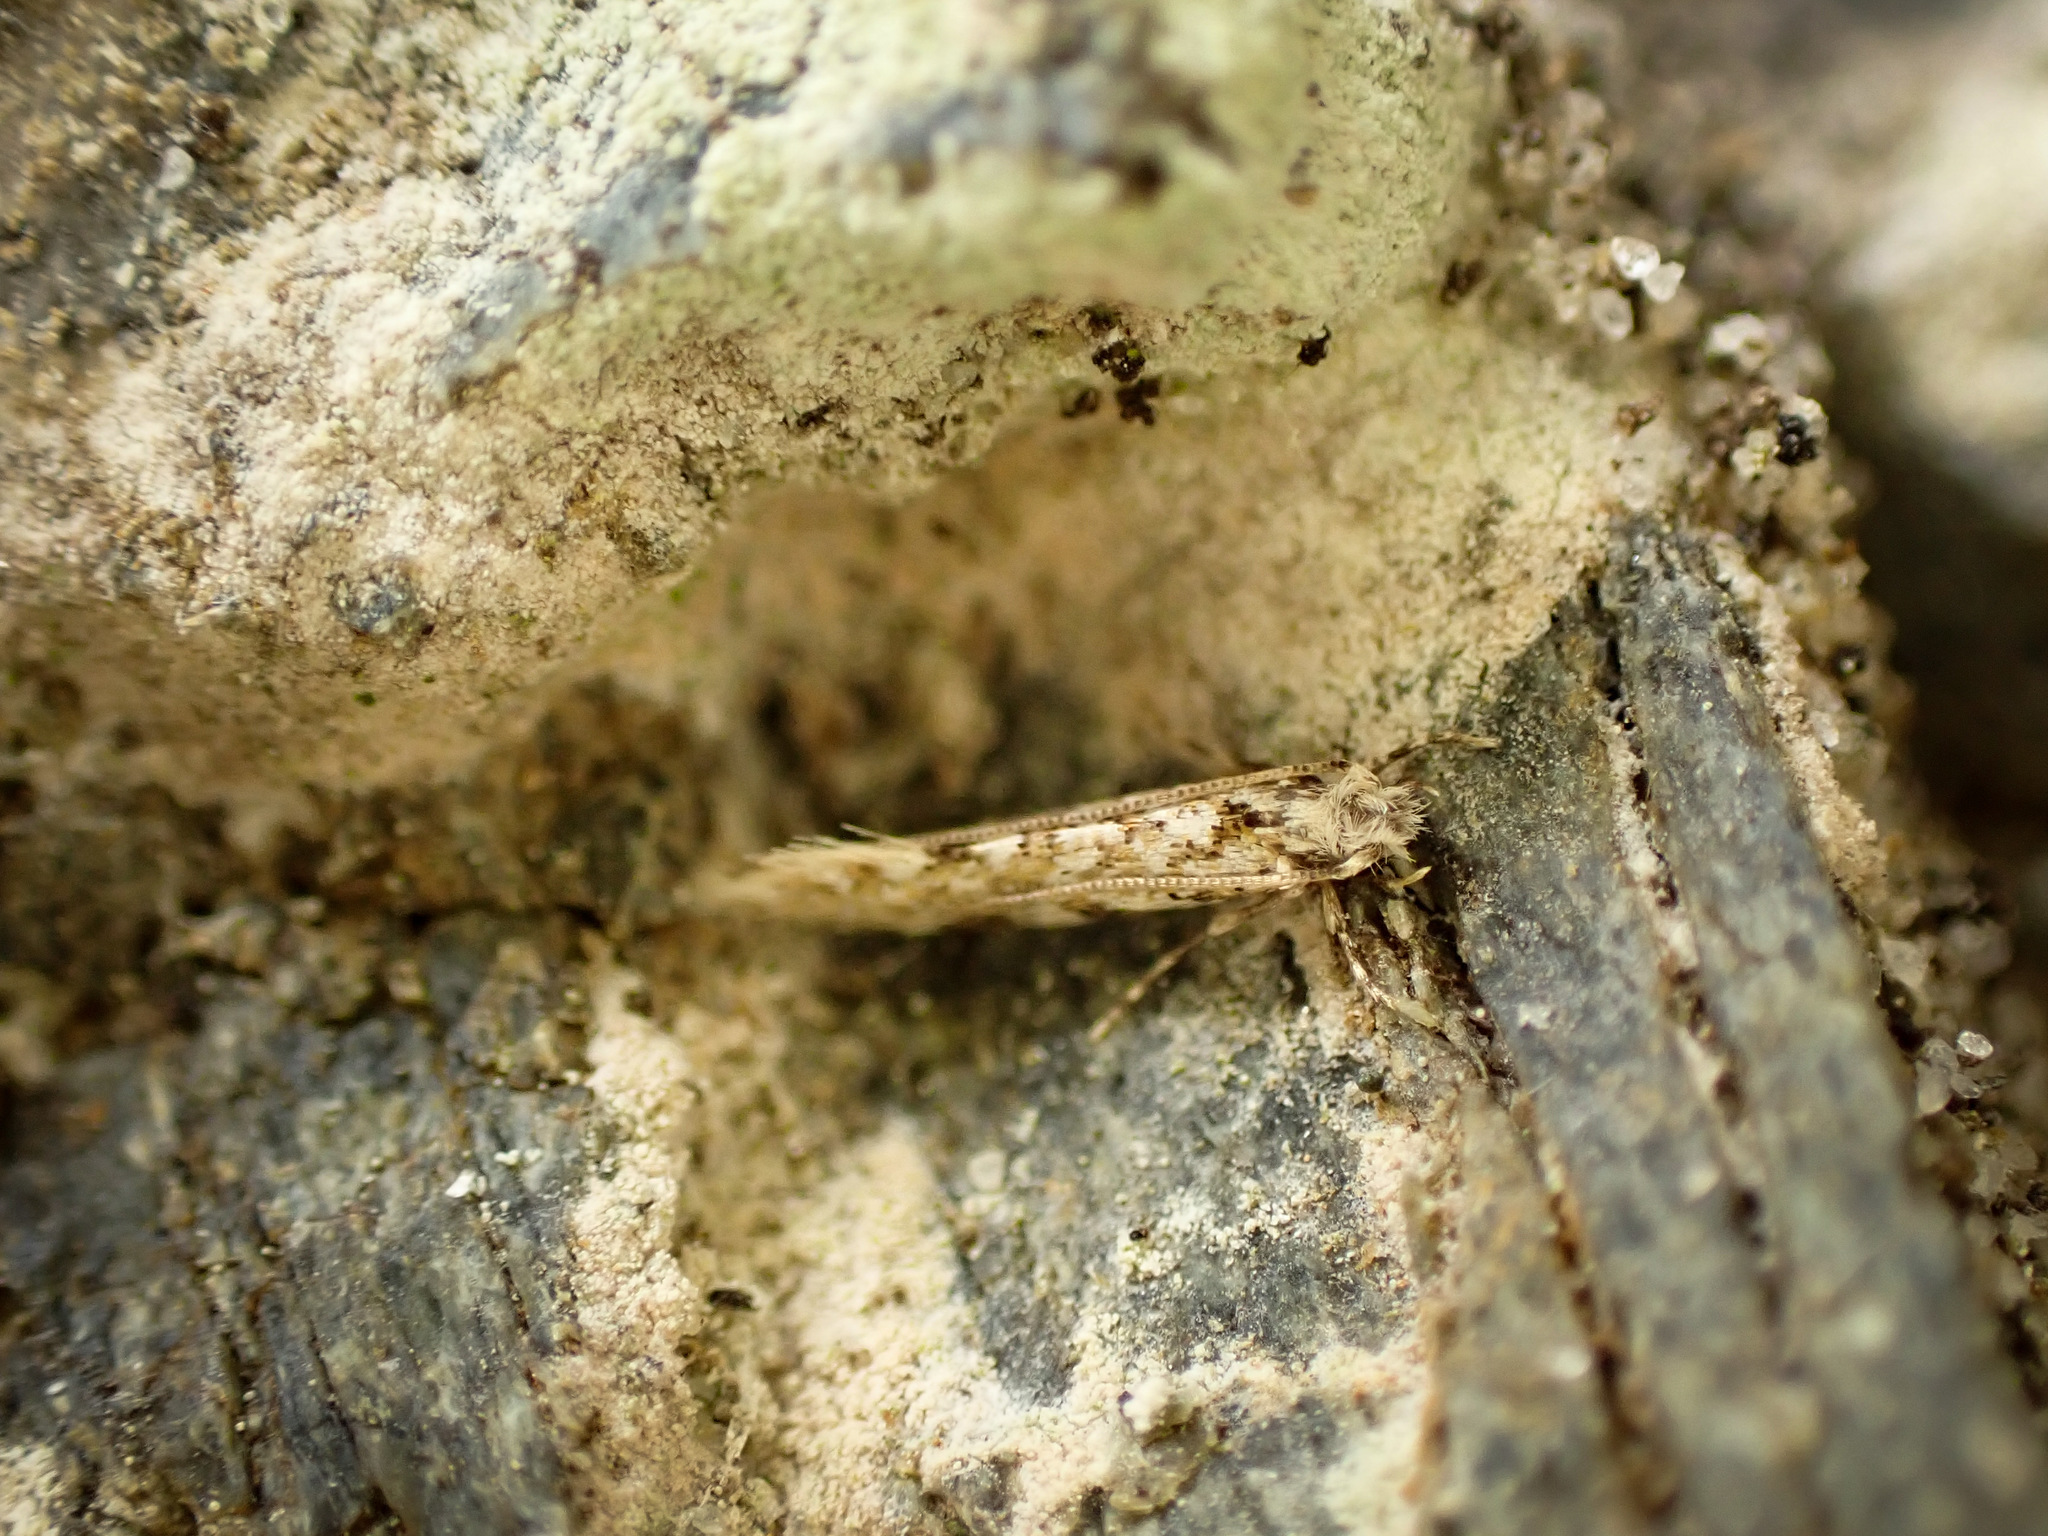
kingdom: Animalia
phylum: Arthropoda
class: Insecta
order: Lepidoptera
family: Tineidae
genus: Tinea
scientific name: Tinea furcillata
